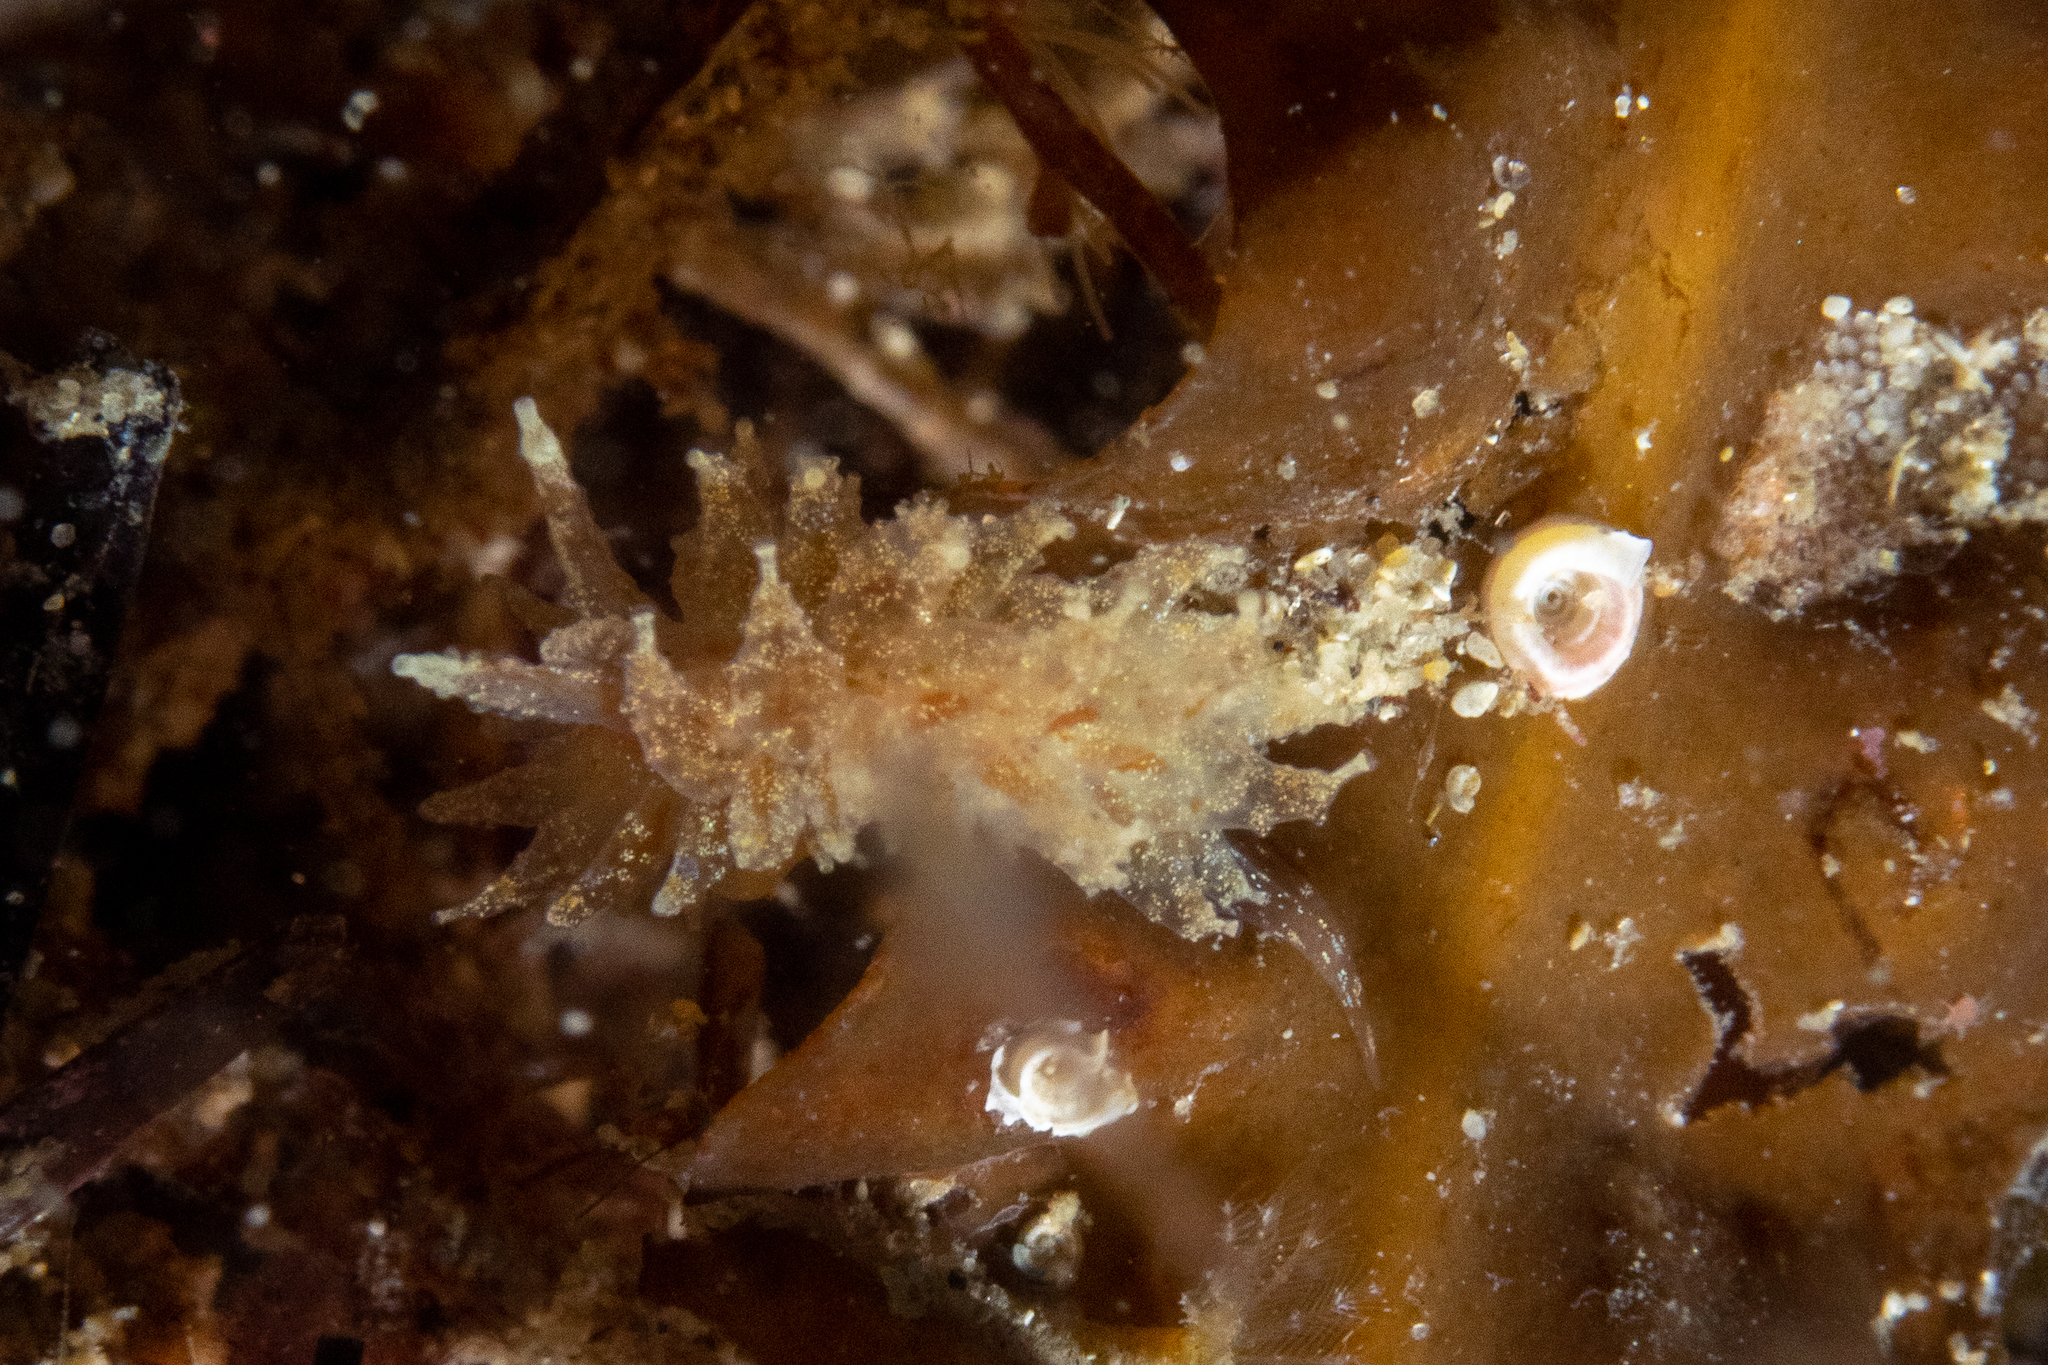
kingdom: Animalia
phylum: Mollusca
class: Gastropoda
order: Nudibranchia
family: Janolidae
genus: Janolus
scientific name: Janolus hyalinus
